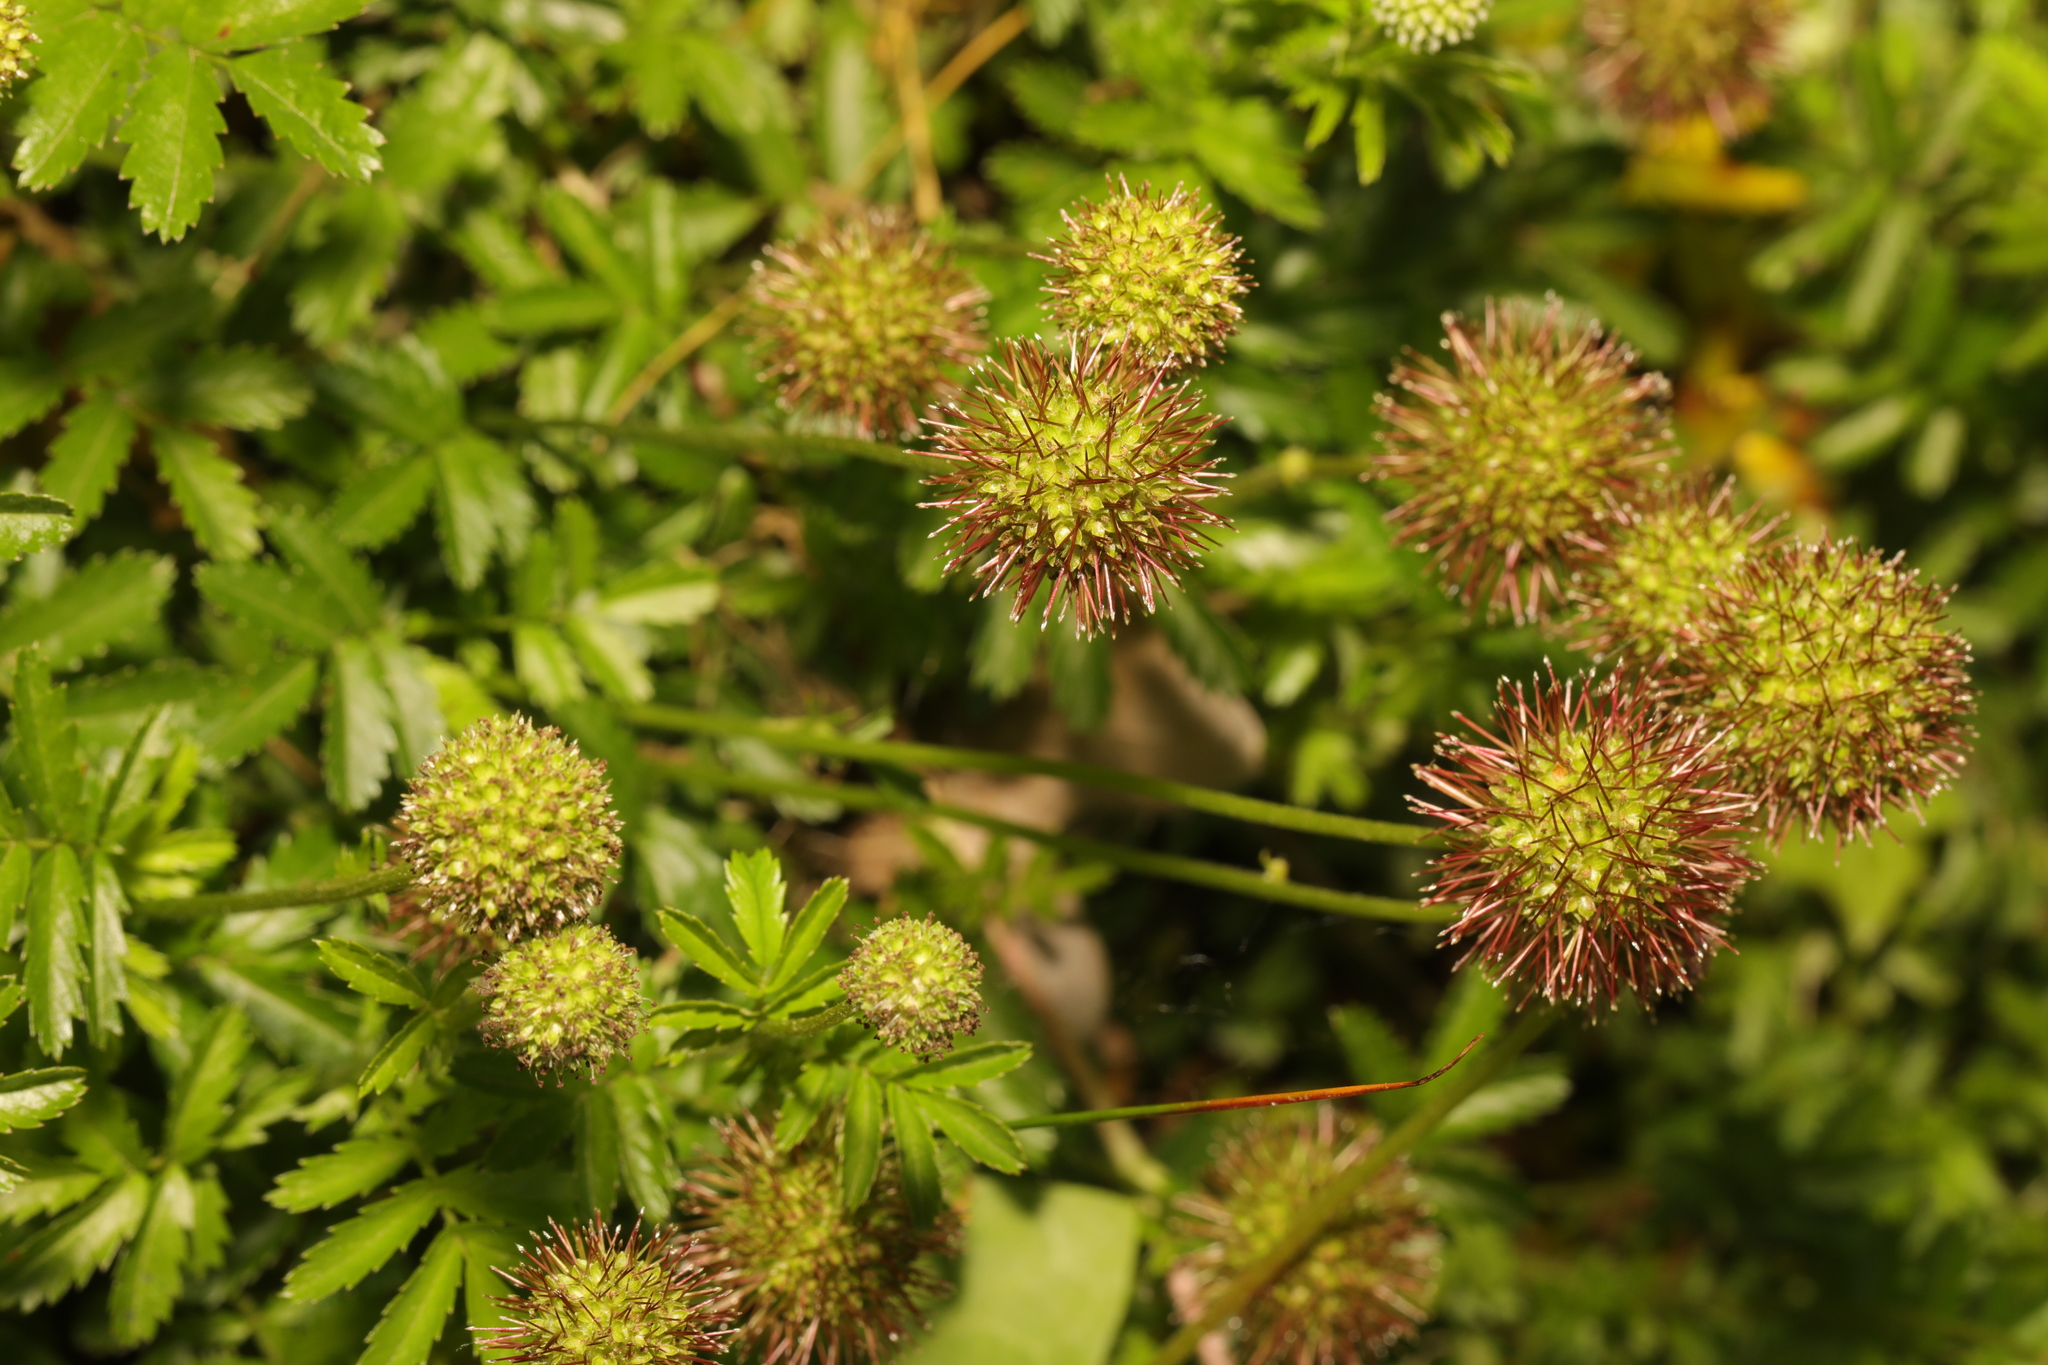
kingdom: Plantae
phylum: Tracheophyta
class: Magnoliopsida
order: Rosales
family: Rosaceae
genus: Acaena
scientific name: Acaena novae-zelandiae
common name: Pirri-pirri-bur
